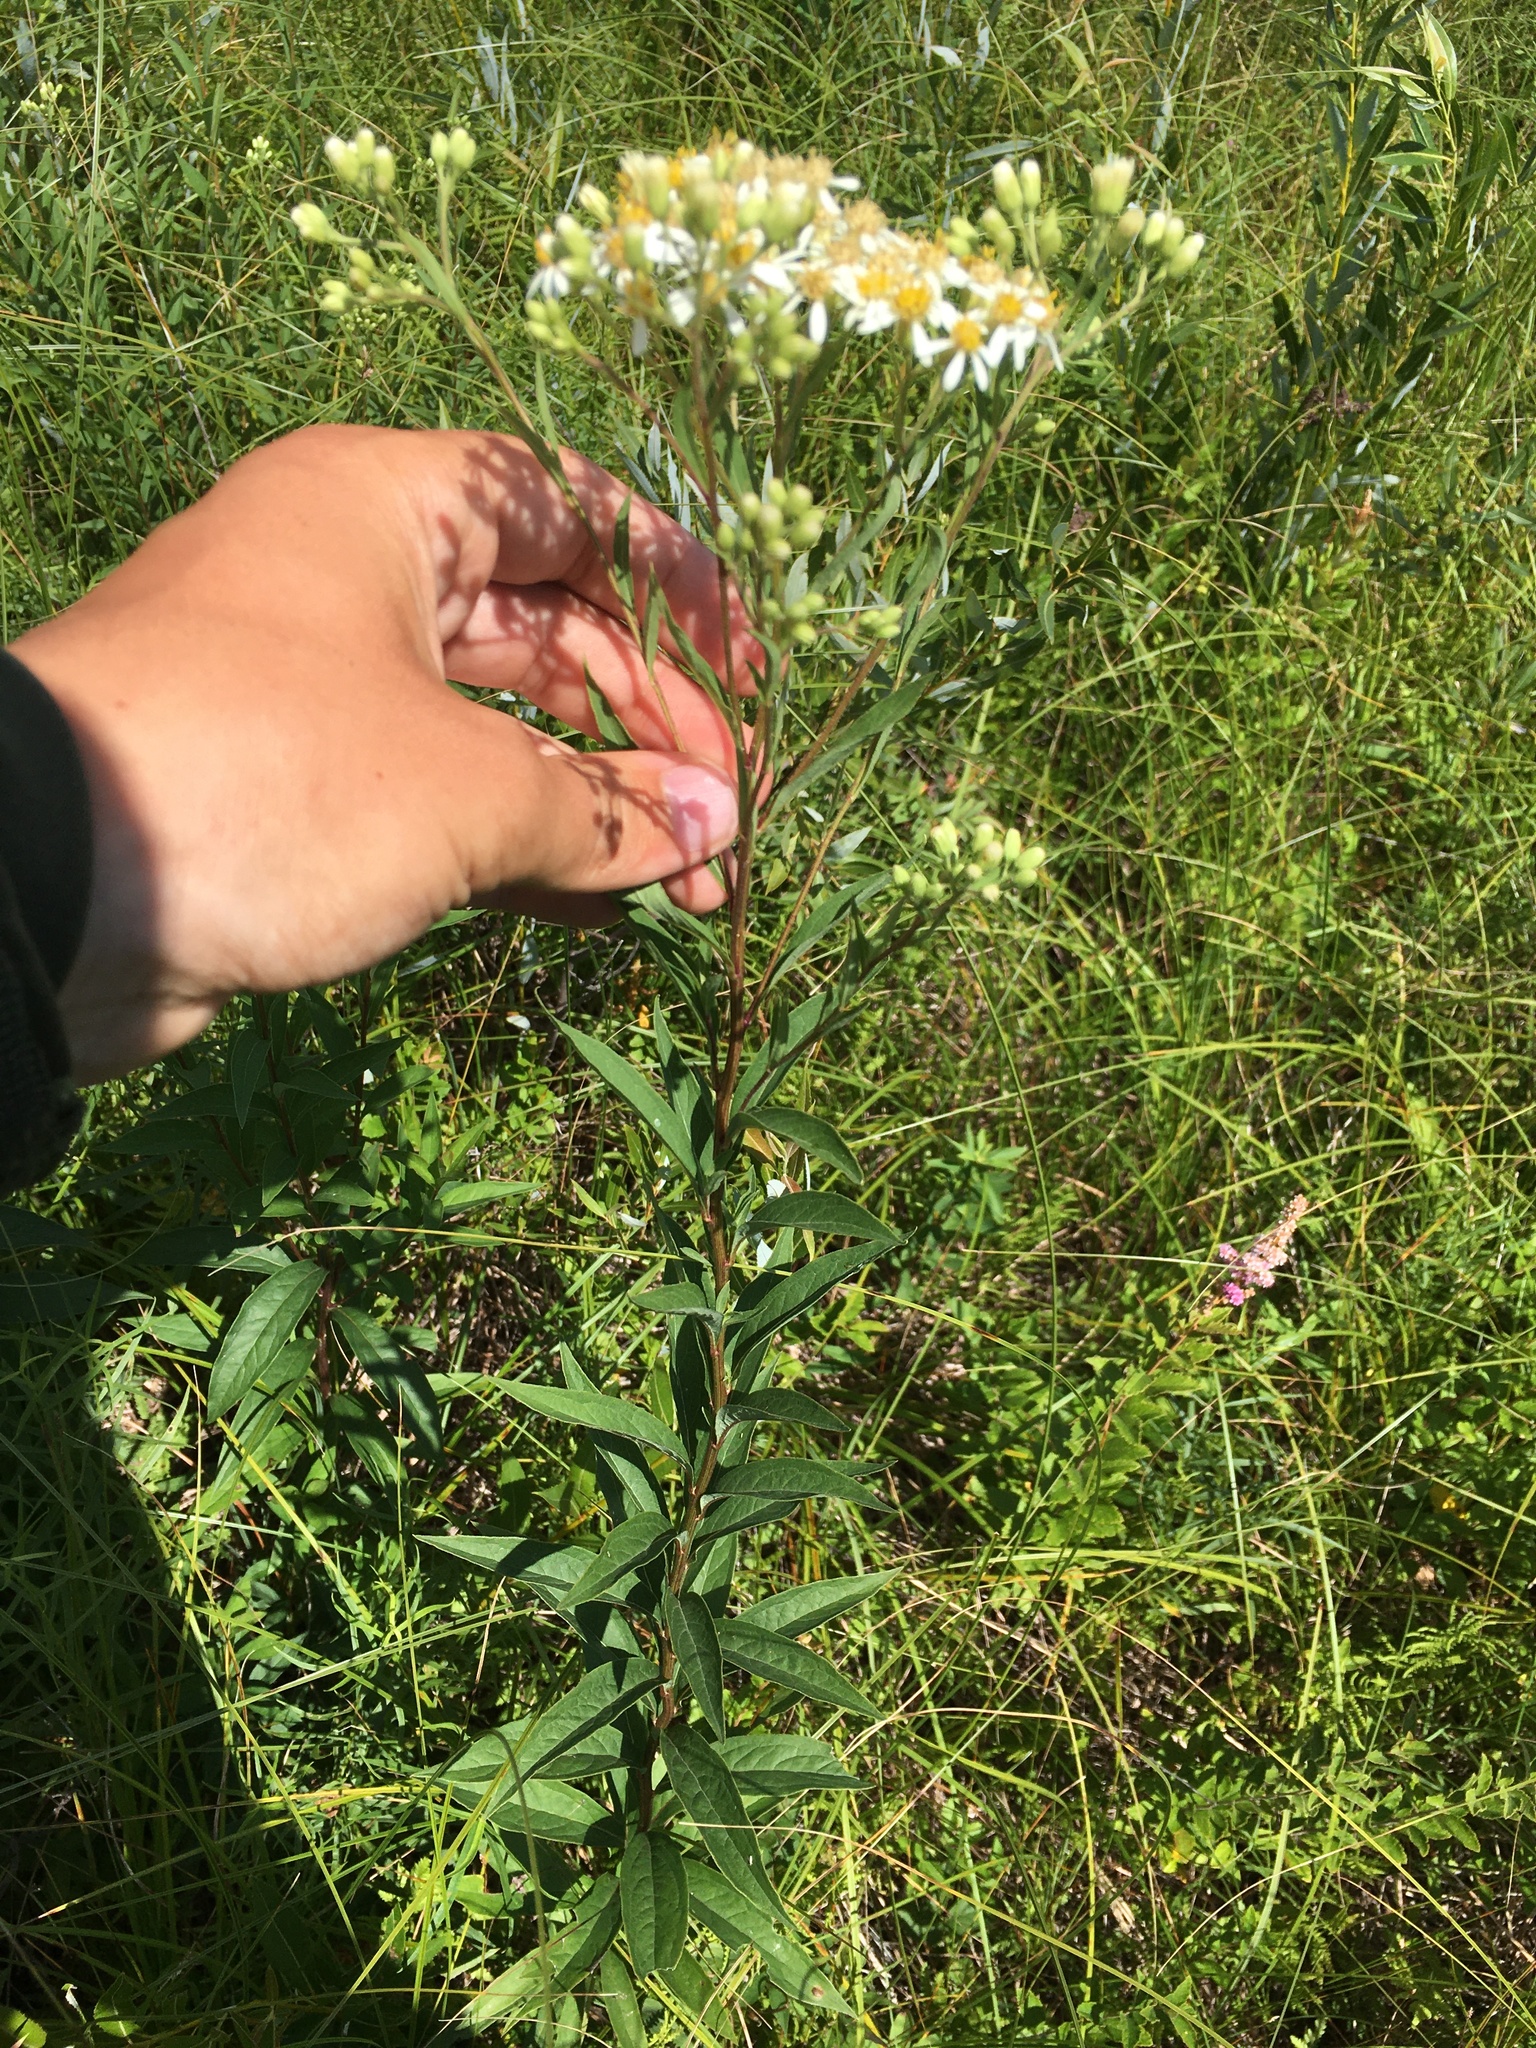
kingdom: Plantae
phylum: Tracheophyta
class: Magnoliopsida
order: Asterales
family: Asteraceae
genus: Doellingeria
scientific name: Doellingeria umbellata
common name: Flat-top white aster
